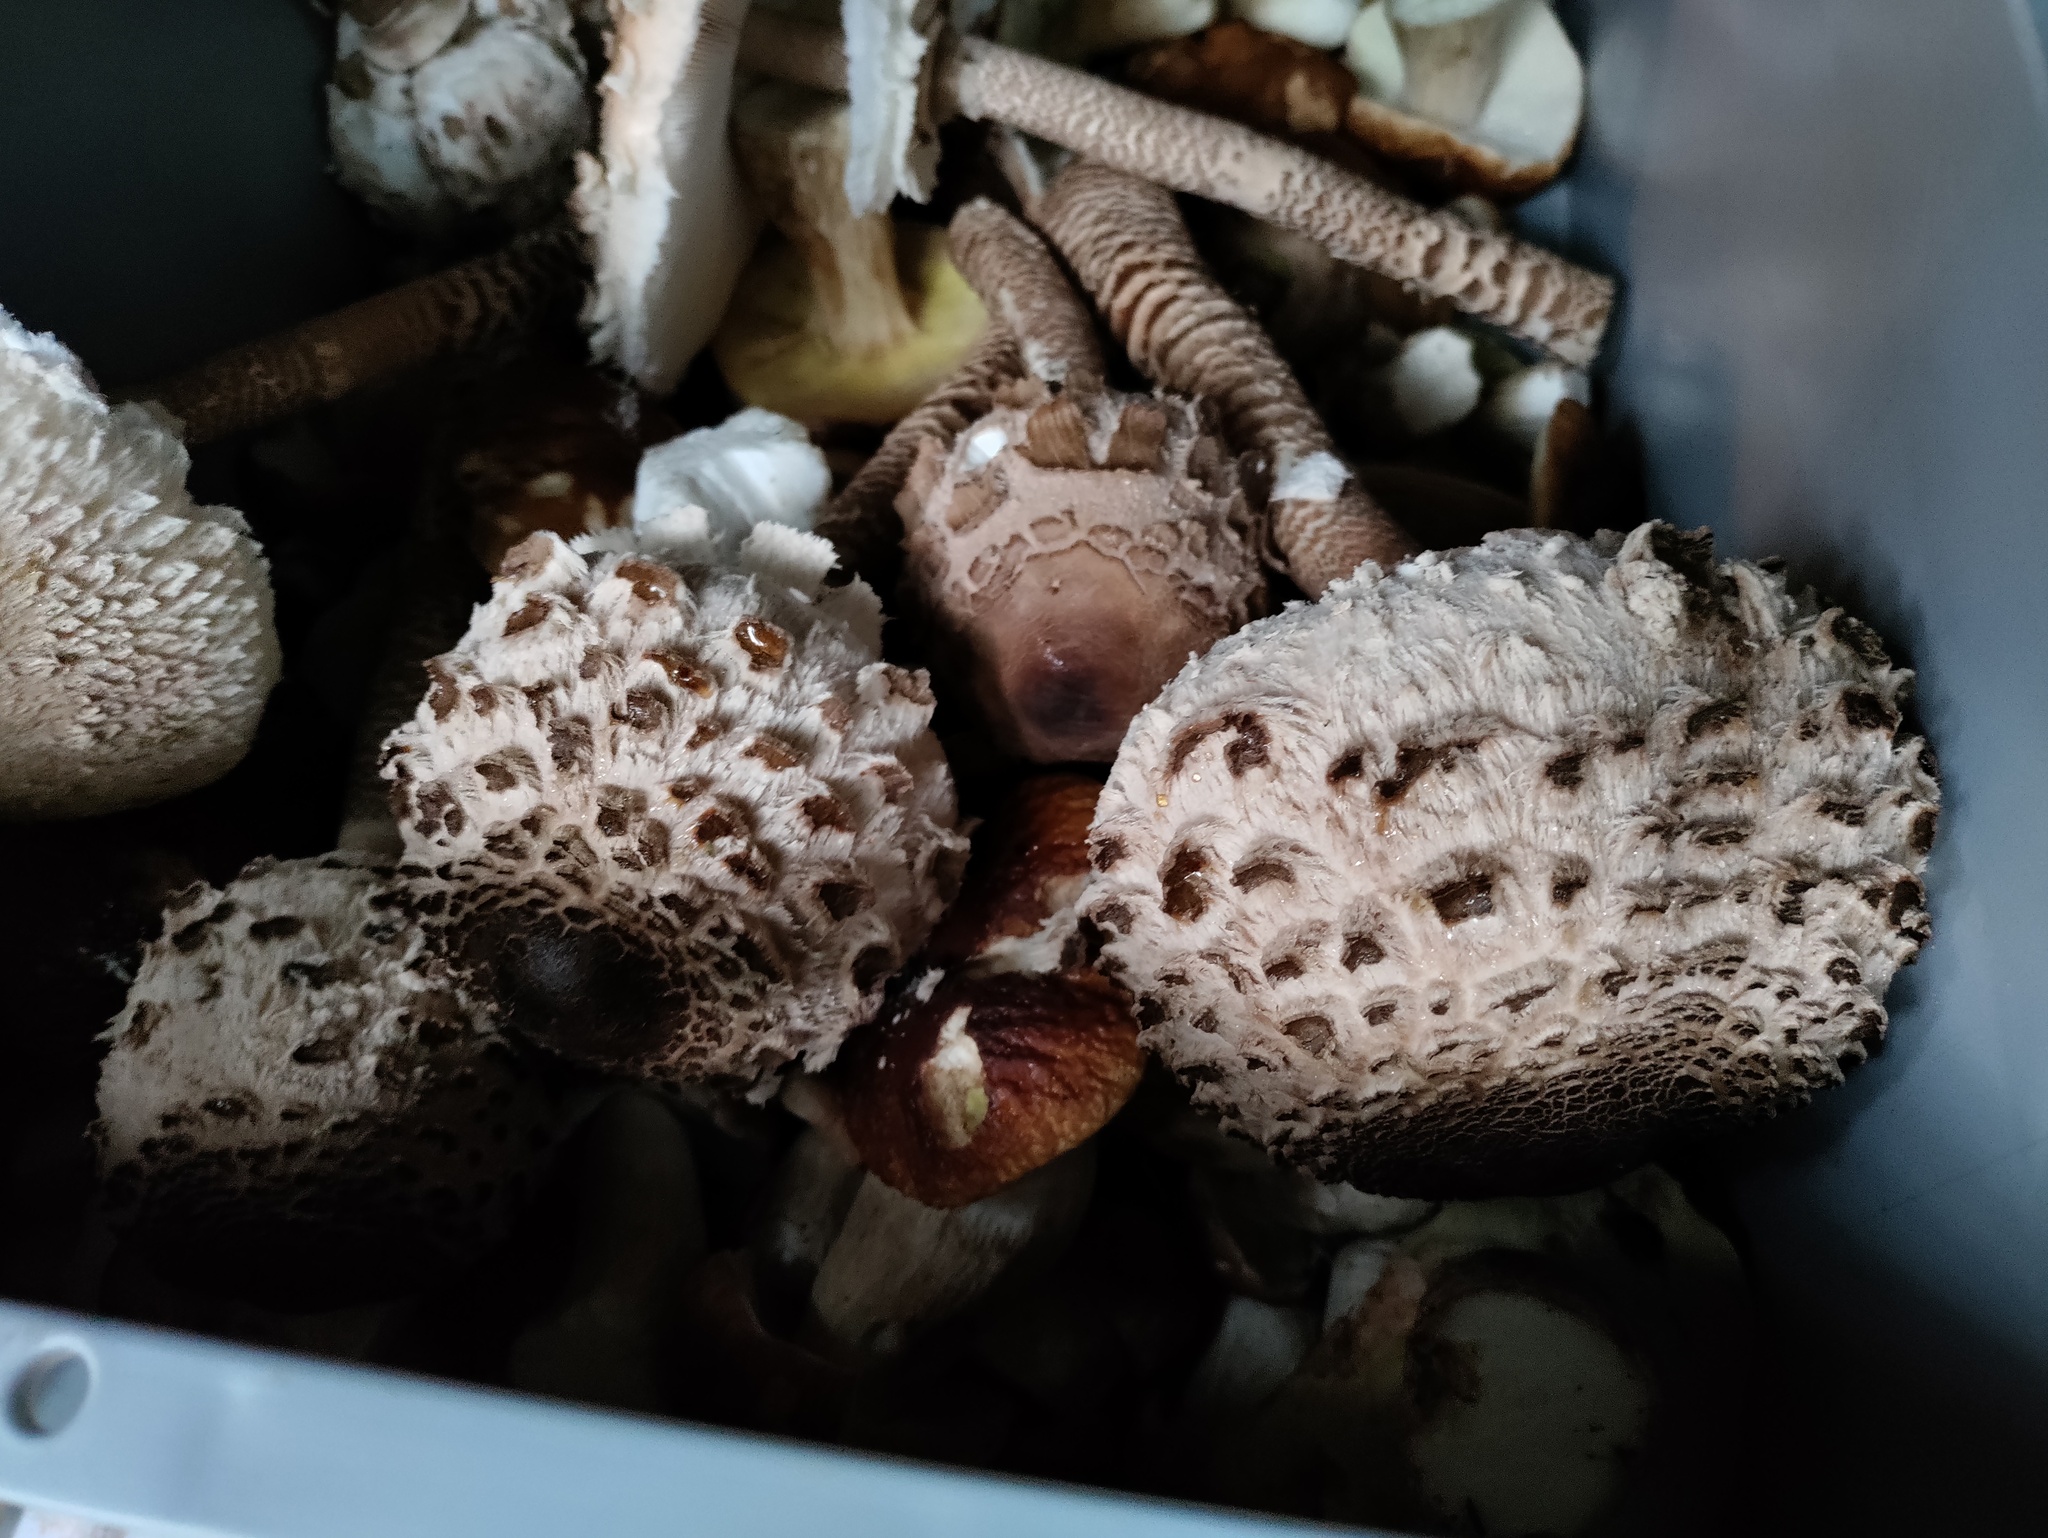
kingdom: Fungi
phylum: Basidiomycota
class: Agaricomycetes
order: Agaricales
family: Agaricaceae
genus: Macrolepiota
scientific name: Macrolepiota procera
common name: Parasol
